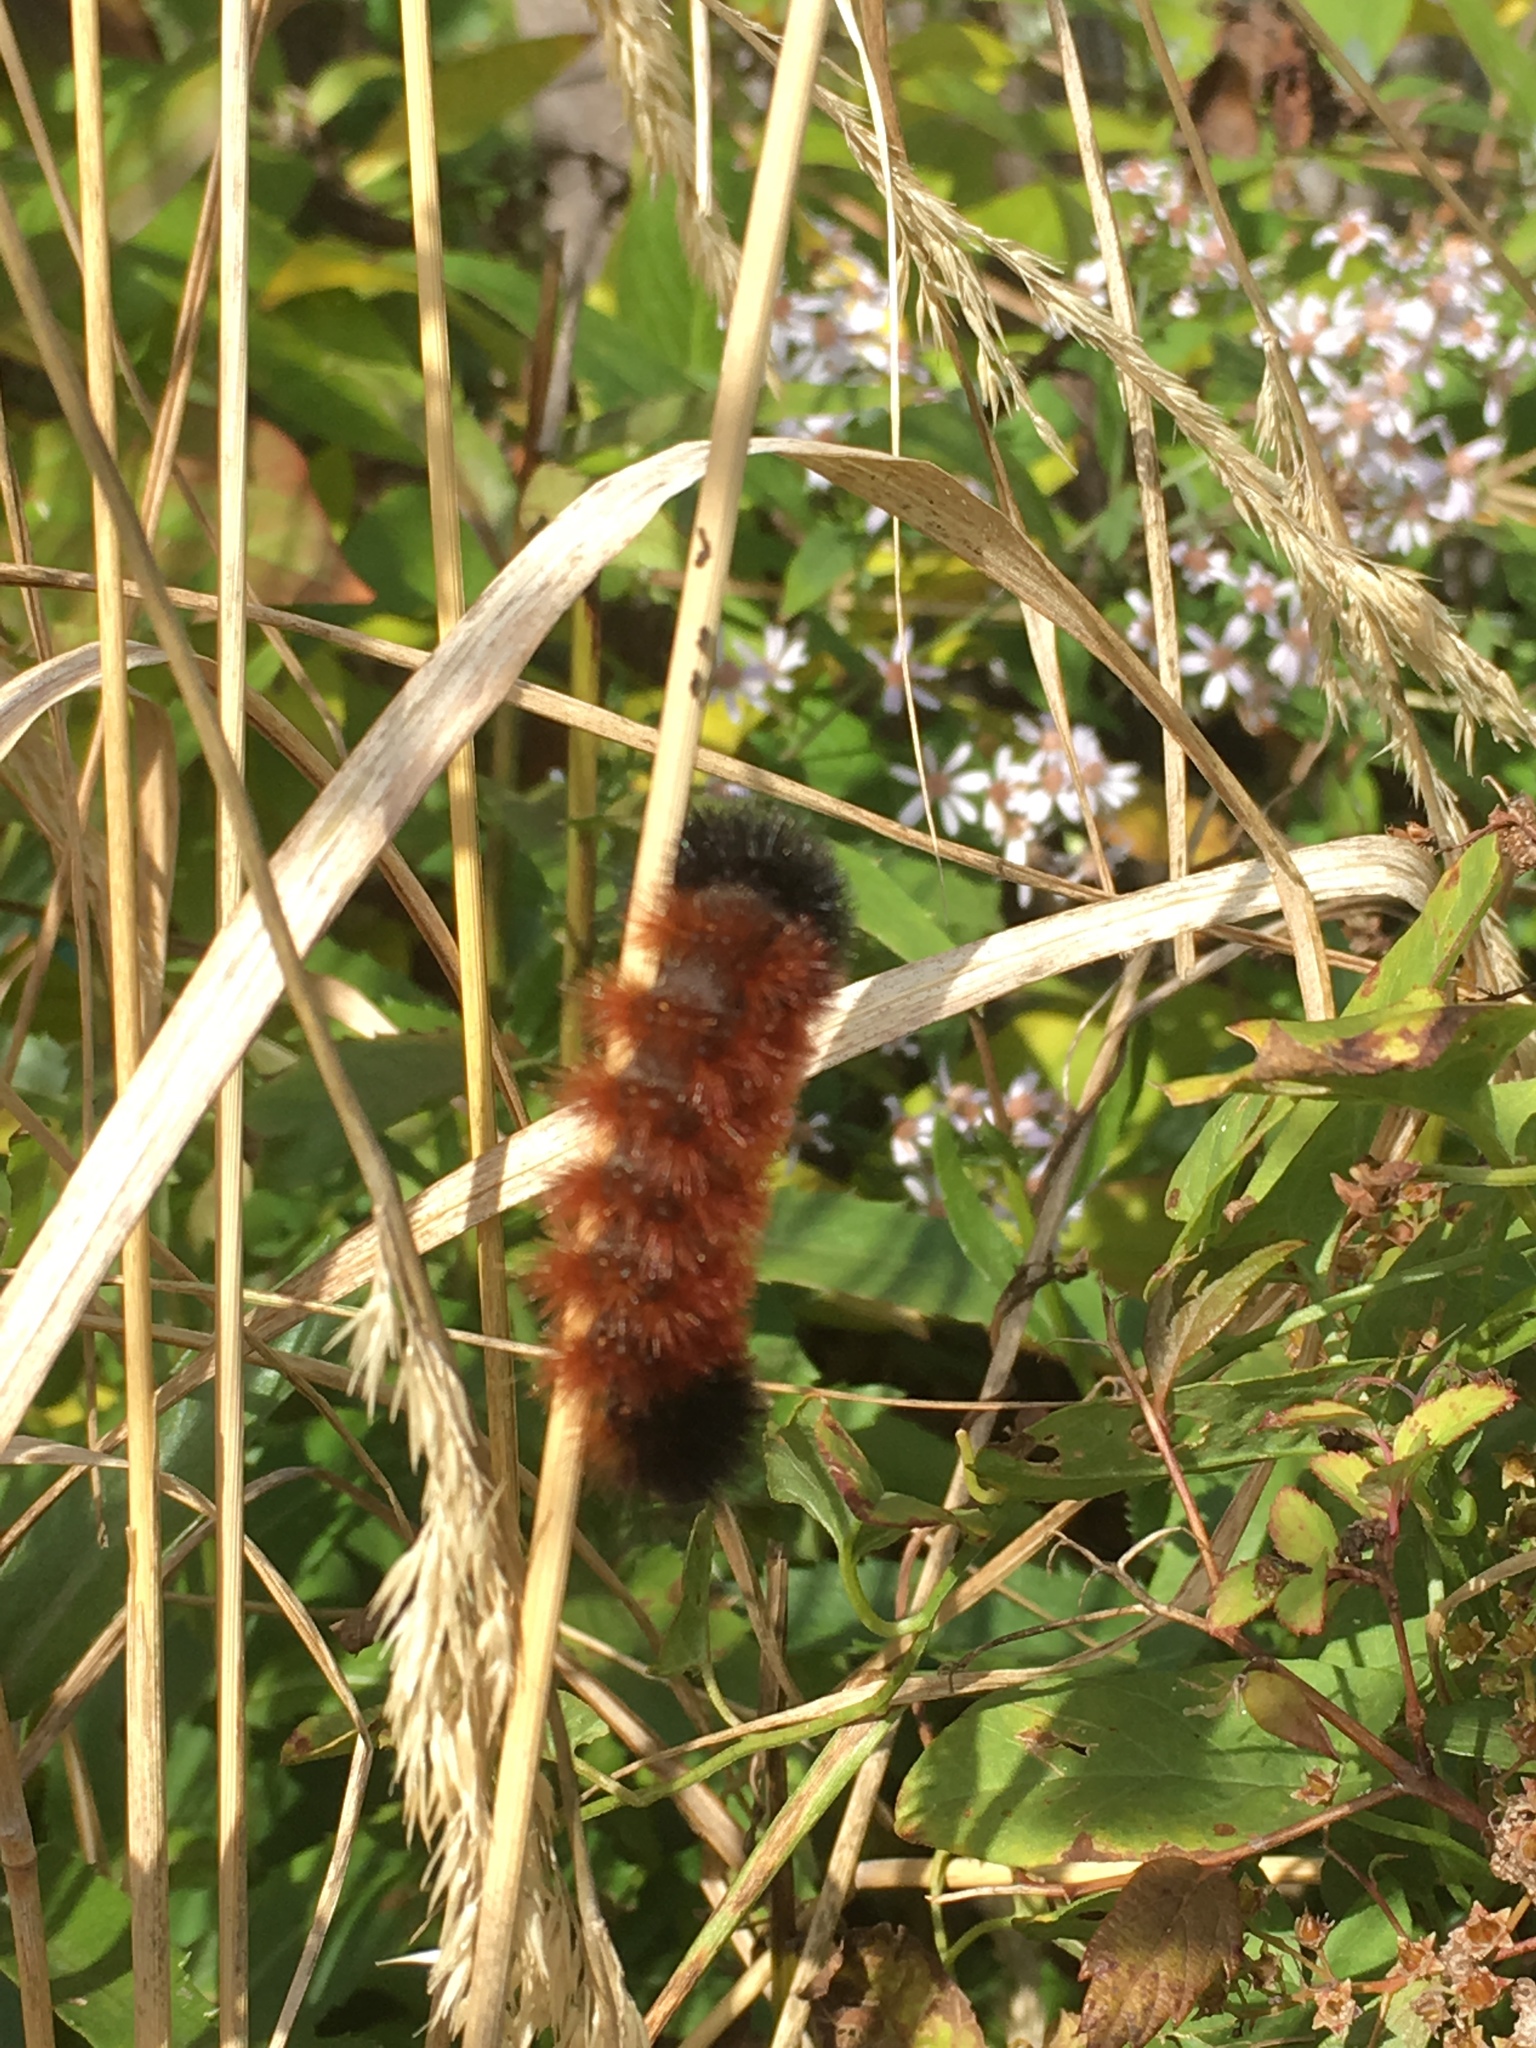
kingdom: Animalia
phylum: Arthropoda
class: Insecta
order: Lepidoptera
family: Erebidae
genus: Pyrrharctia
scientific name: Pyrrharctia isabella
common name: Isabella tiger moth
